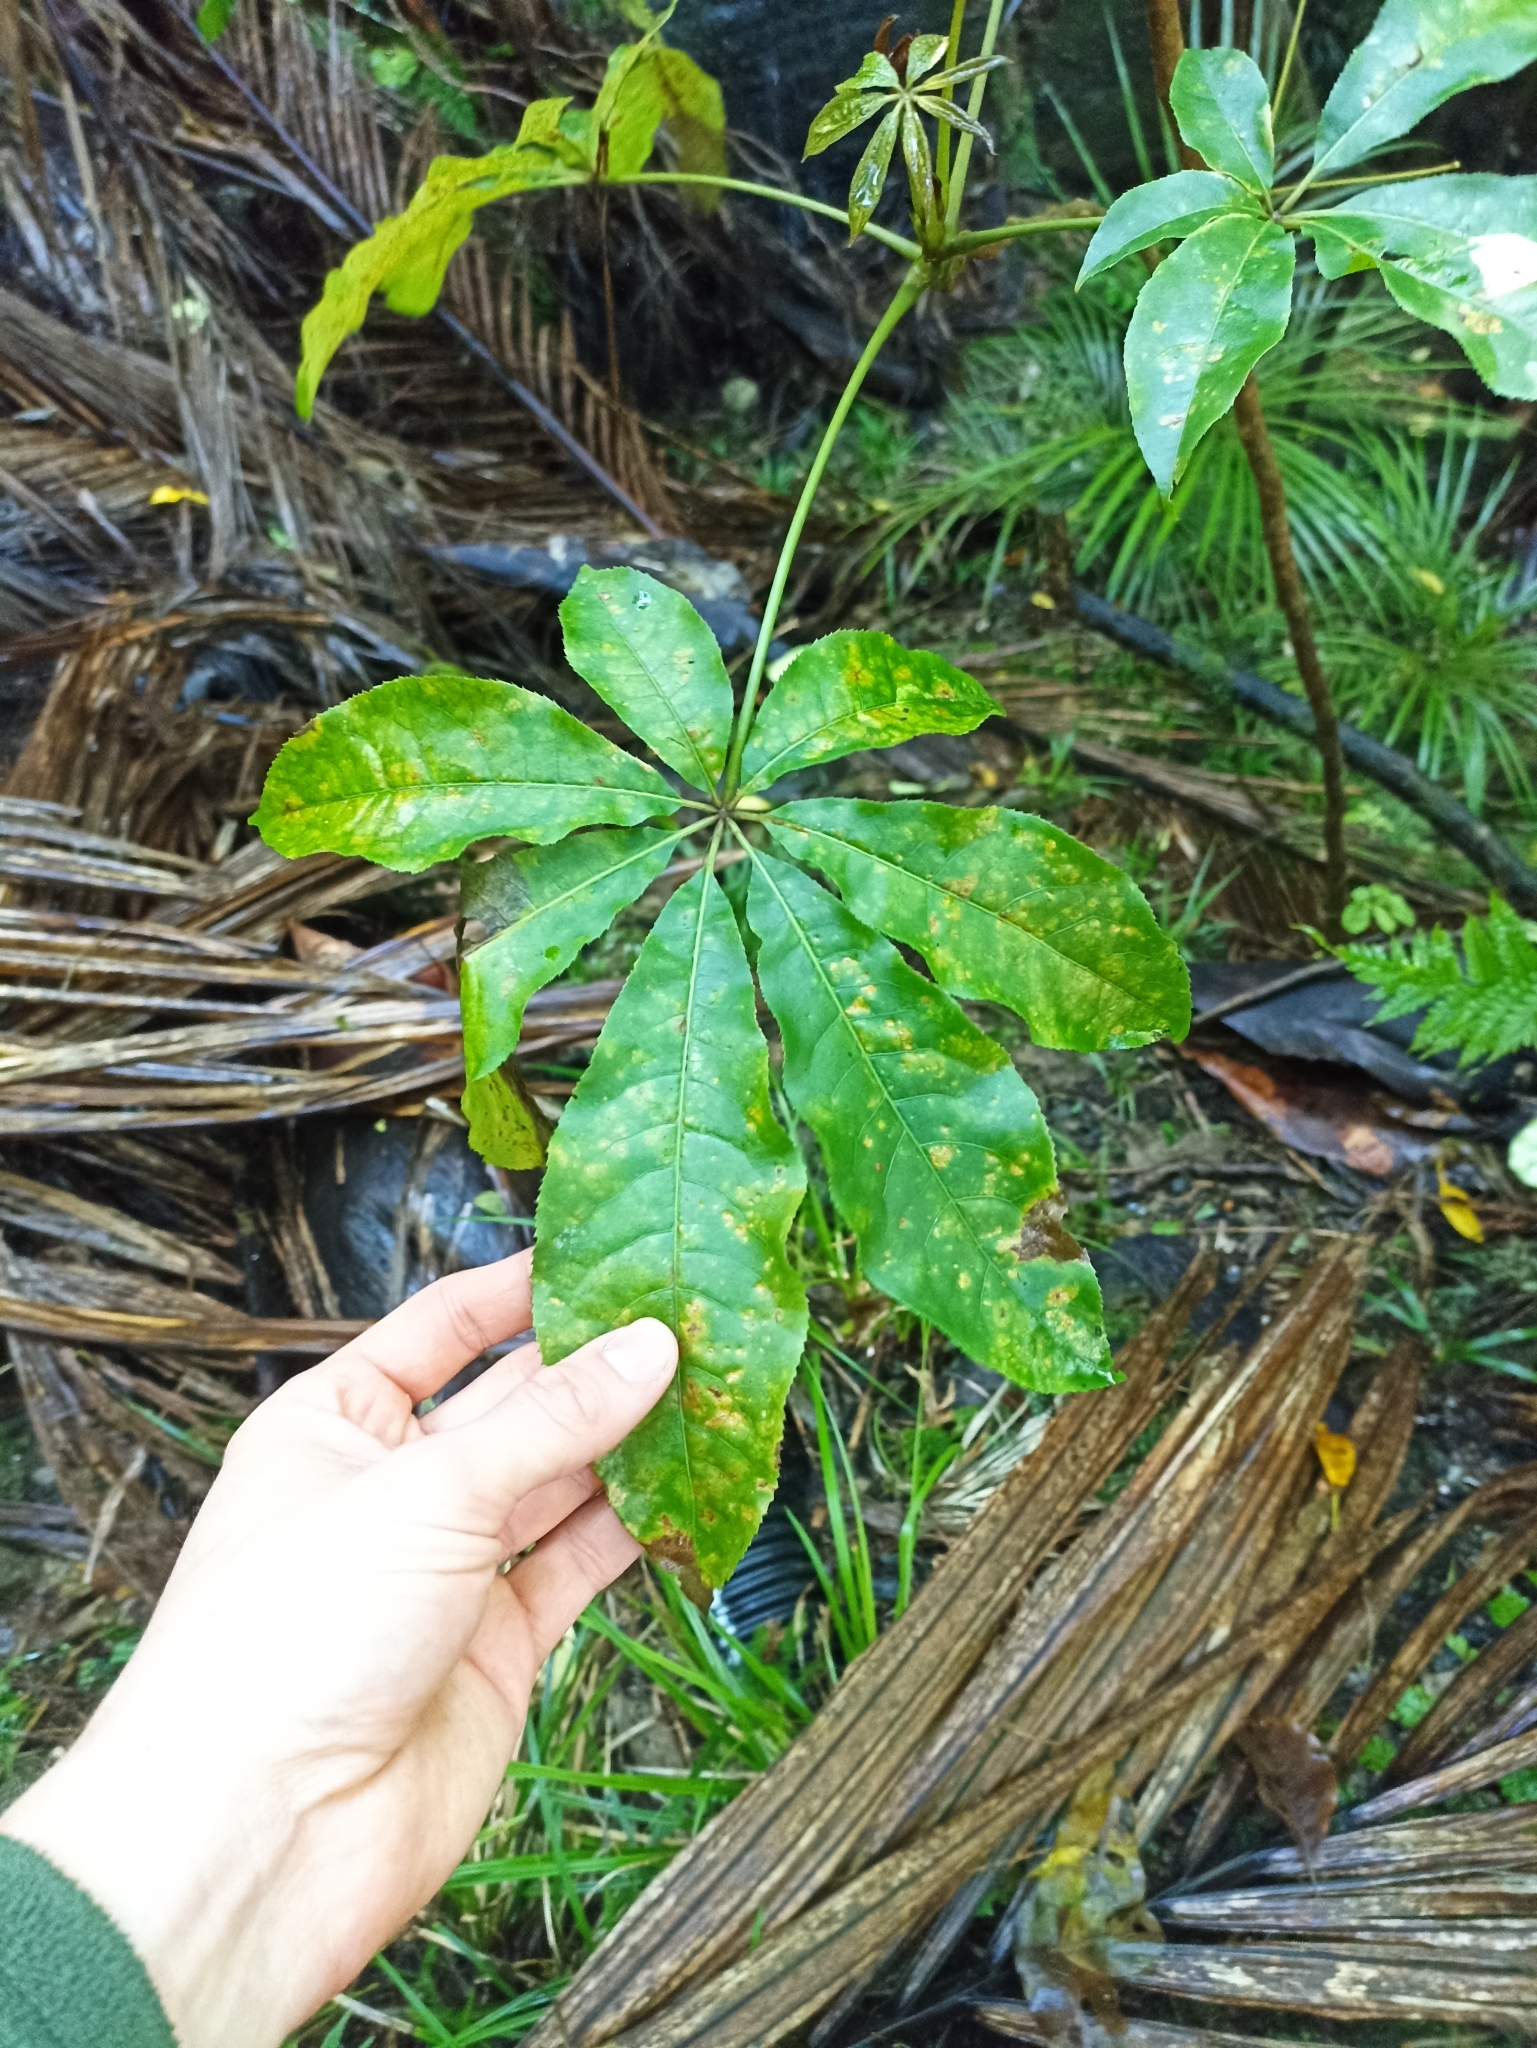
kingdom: Plantae
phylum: Tracheophyta
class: Magnoliopsida
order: Apiales
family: Araliaceae
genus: Schefflera
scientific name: Schefflera digitata
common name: Pate
